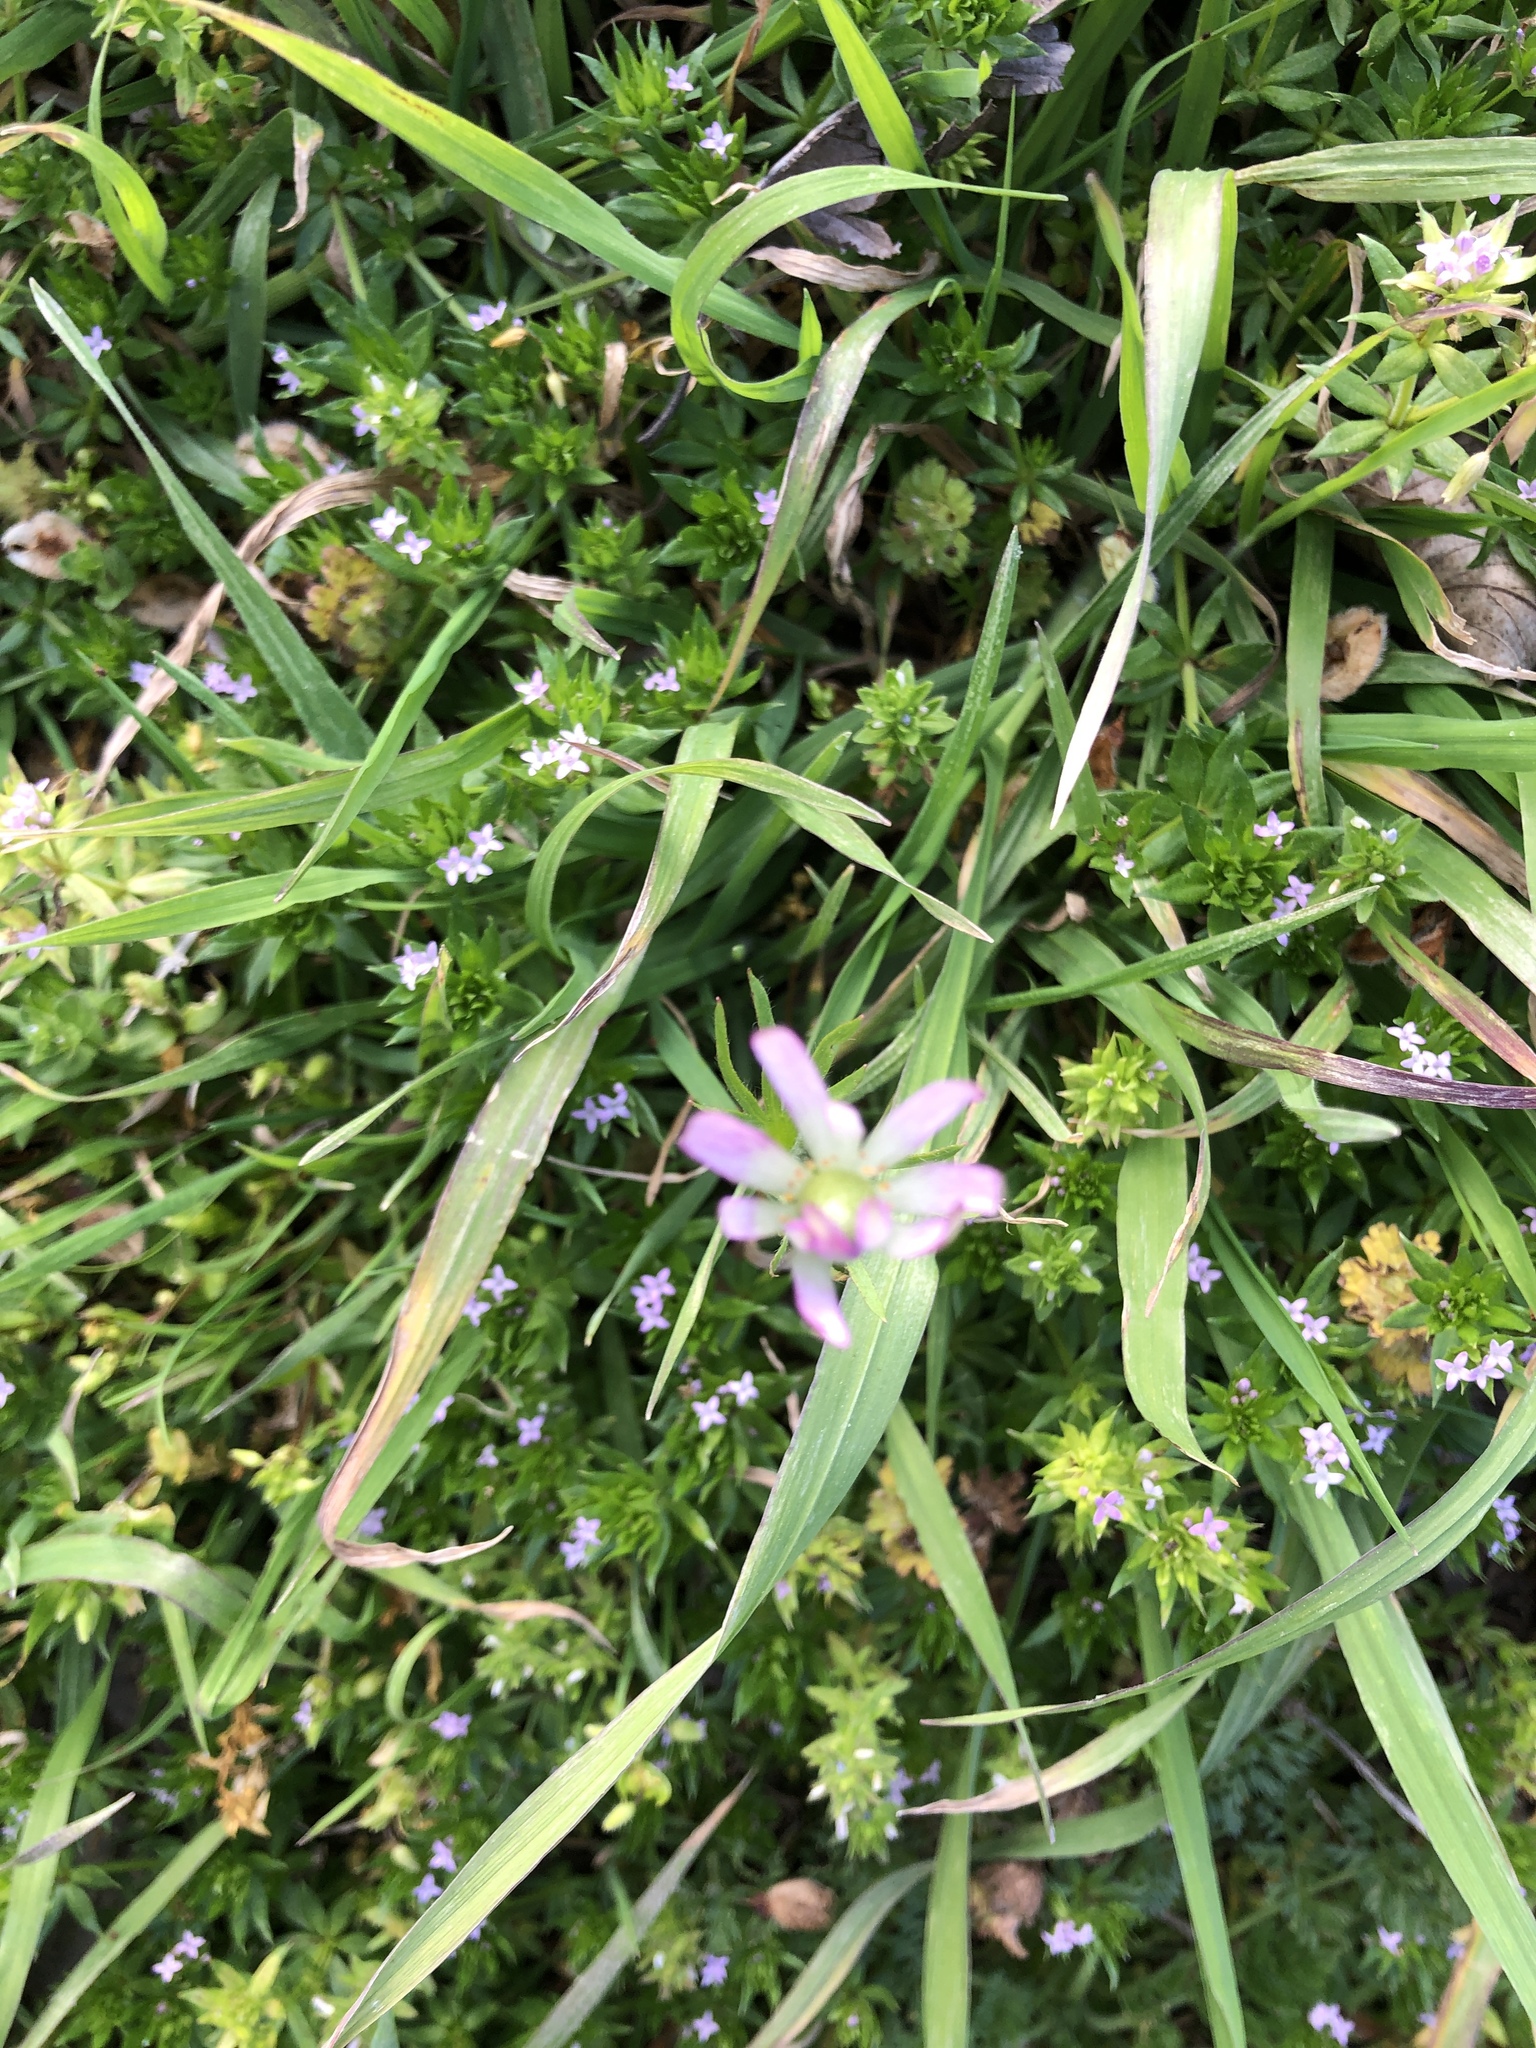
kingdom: Plantae
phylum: Tracheophyta
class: Magnoliopsida
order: Ranunculales
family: Ranunculaceae
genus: Anemone
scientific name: Anemone
